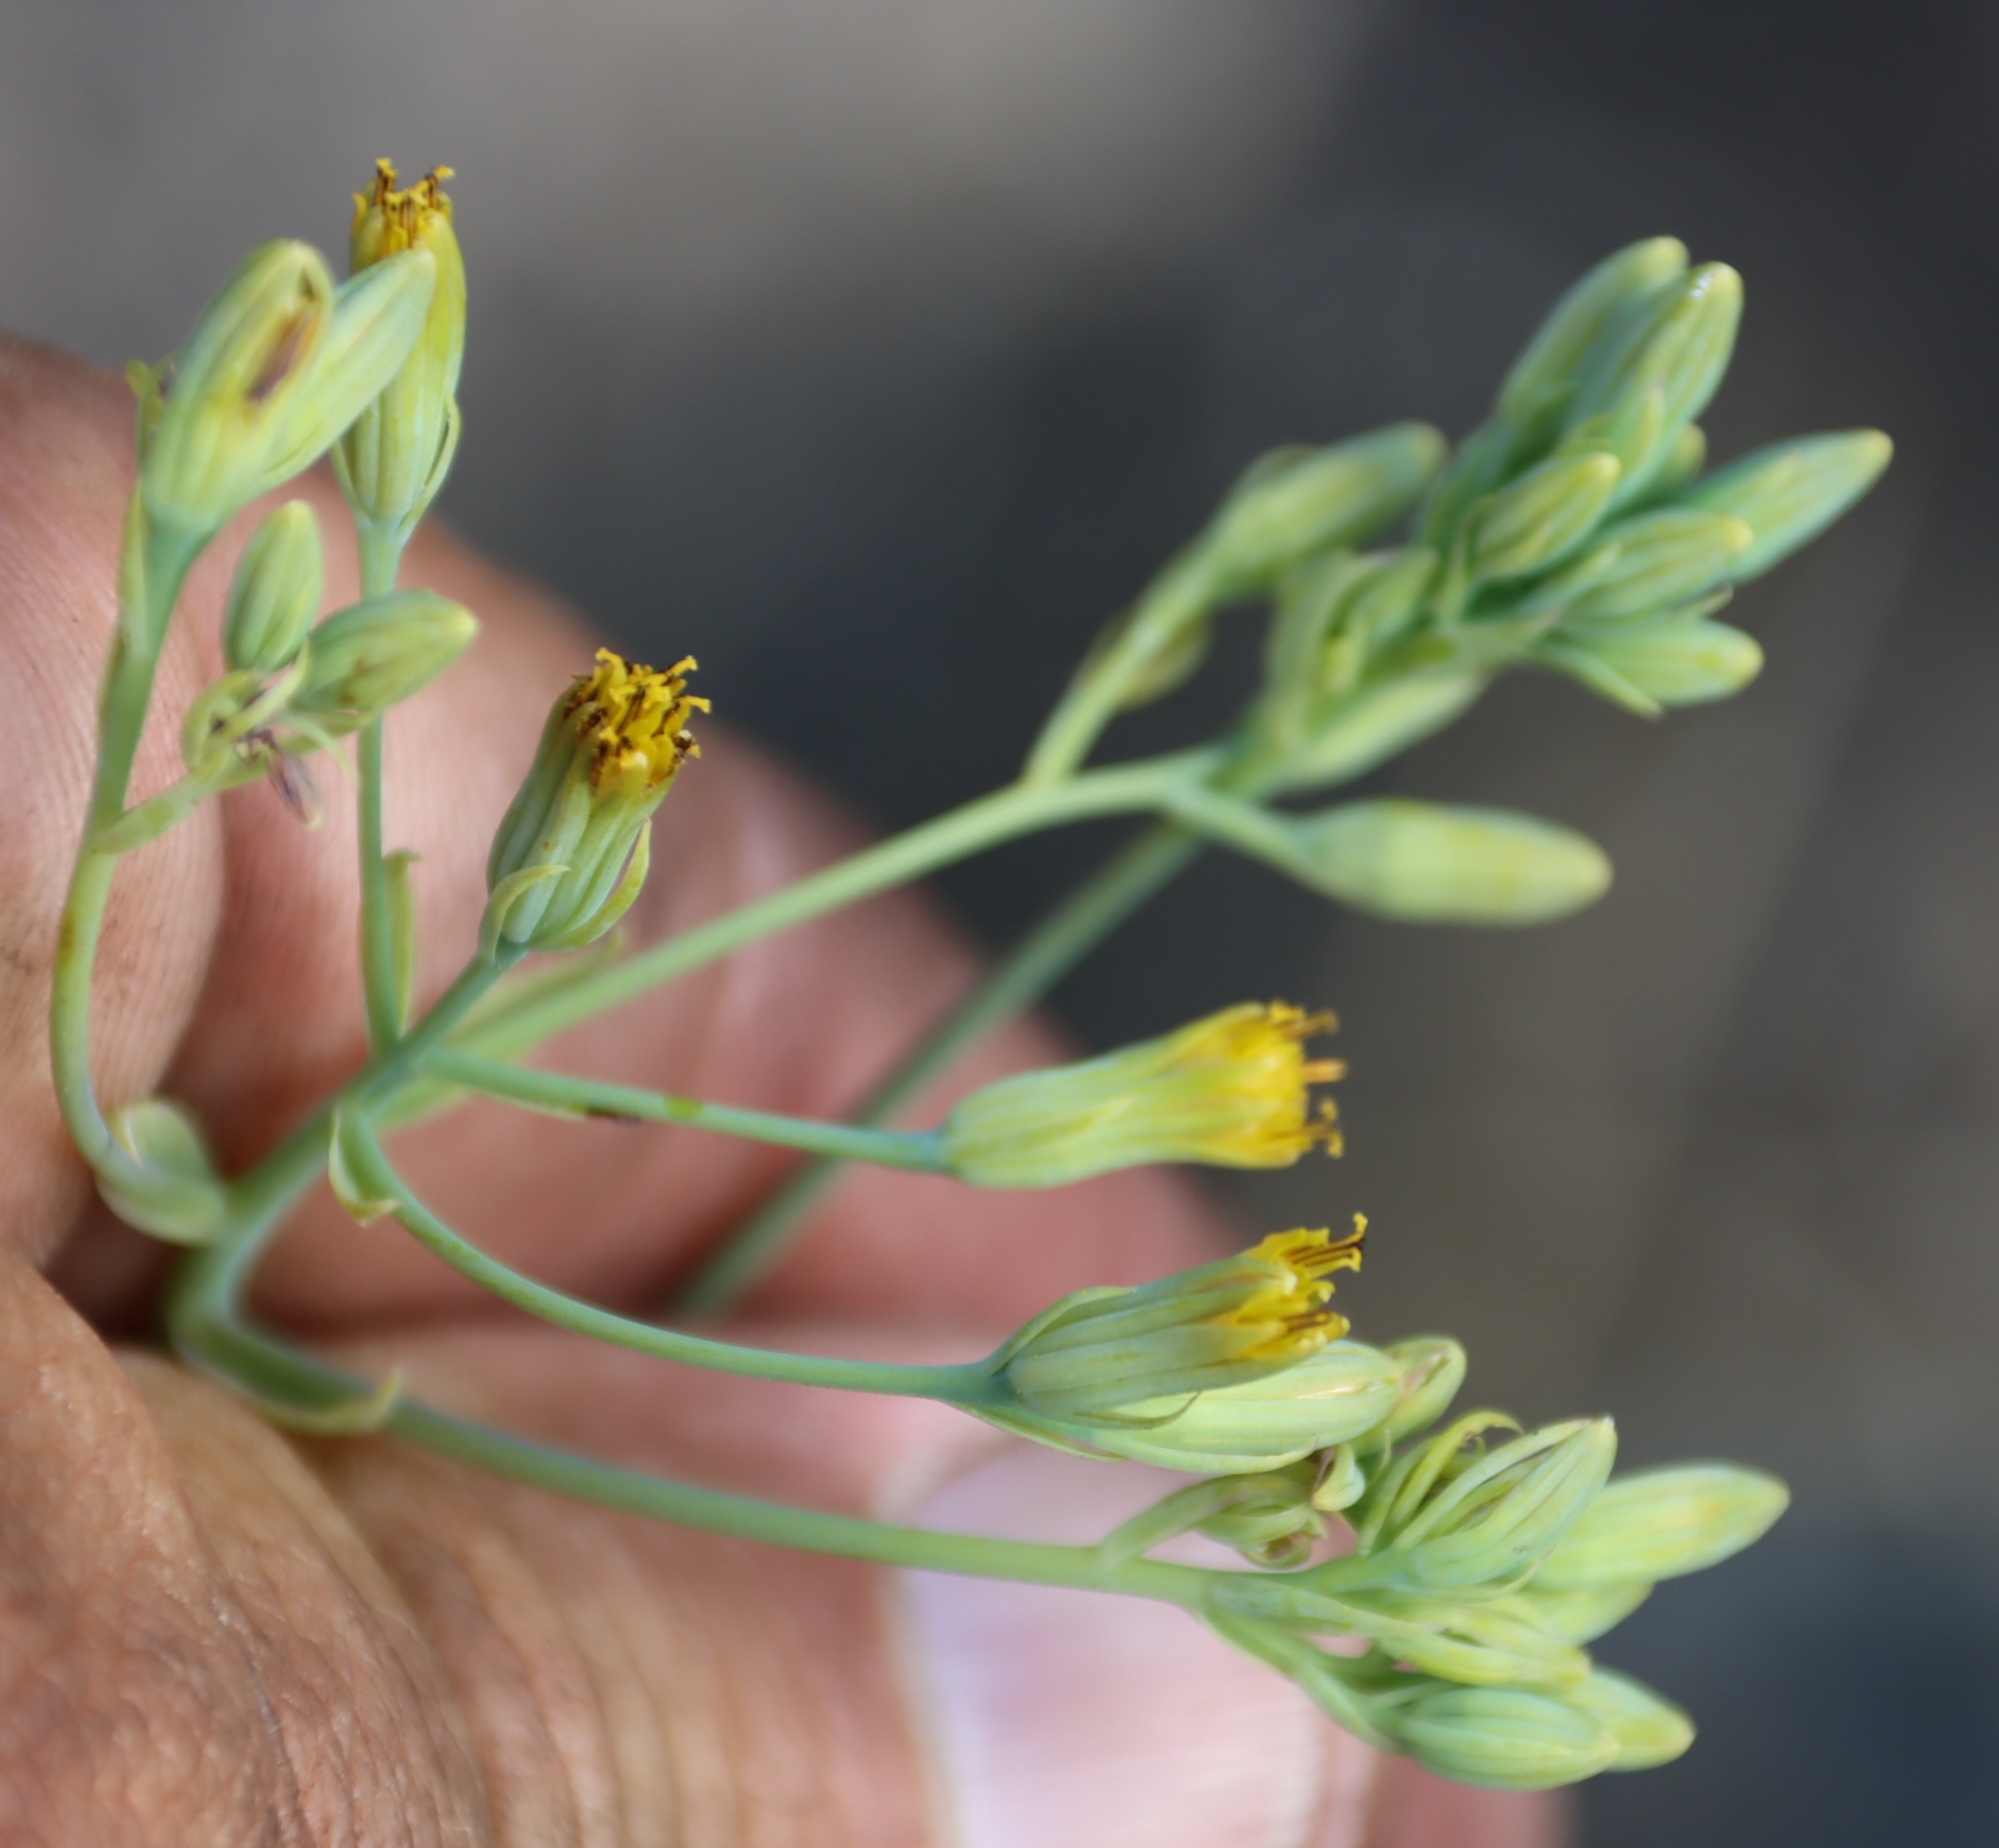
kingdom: Plantae
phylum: Tracheophyta
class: Magnoliopsida
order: Asterales
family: Asteraceae
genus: Senecio
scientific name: Senecio oxyriifolius
